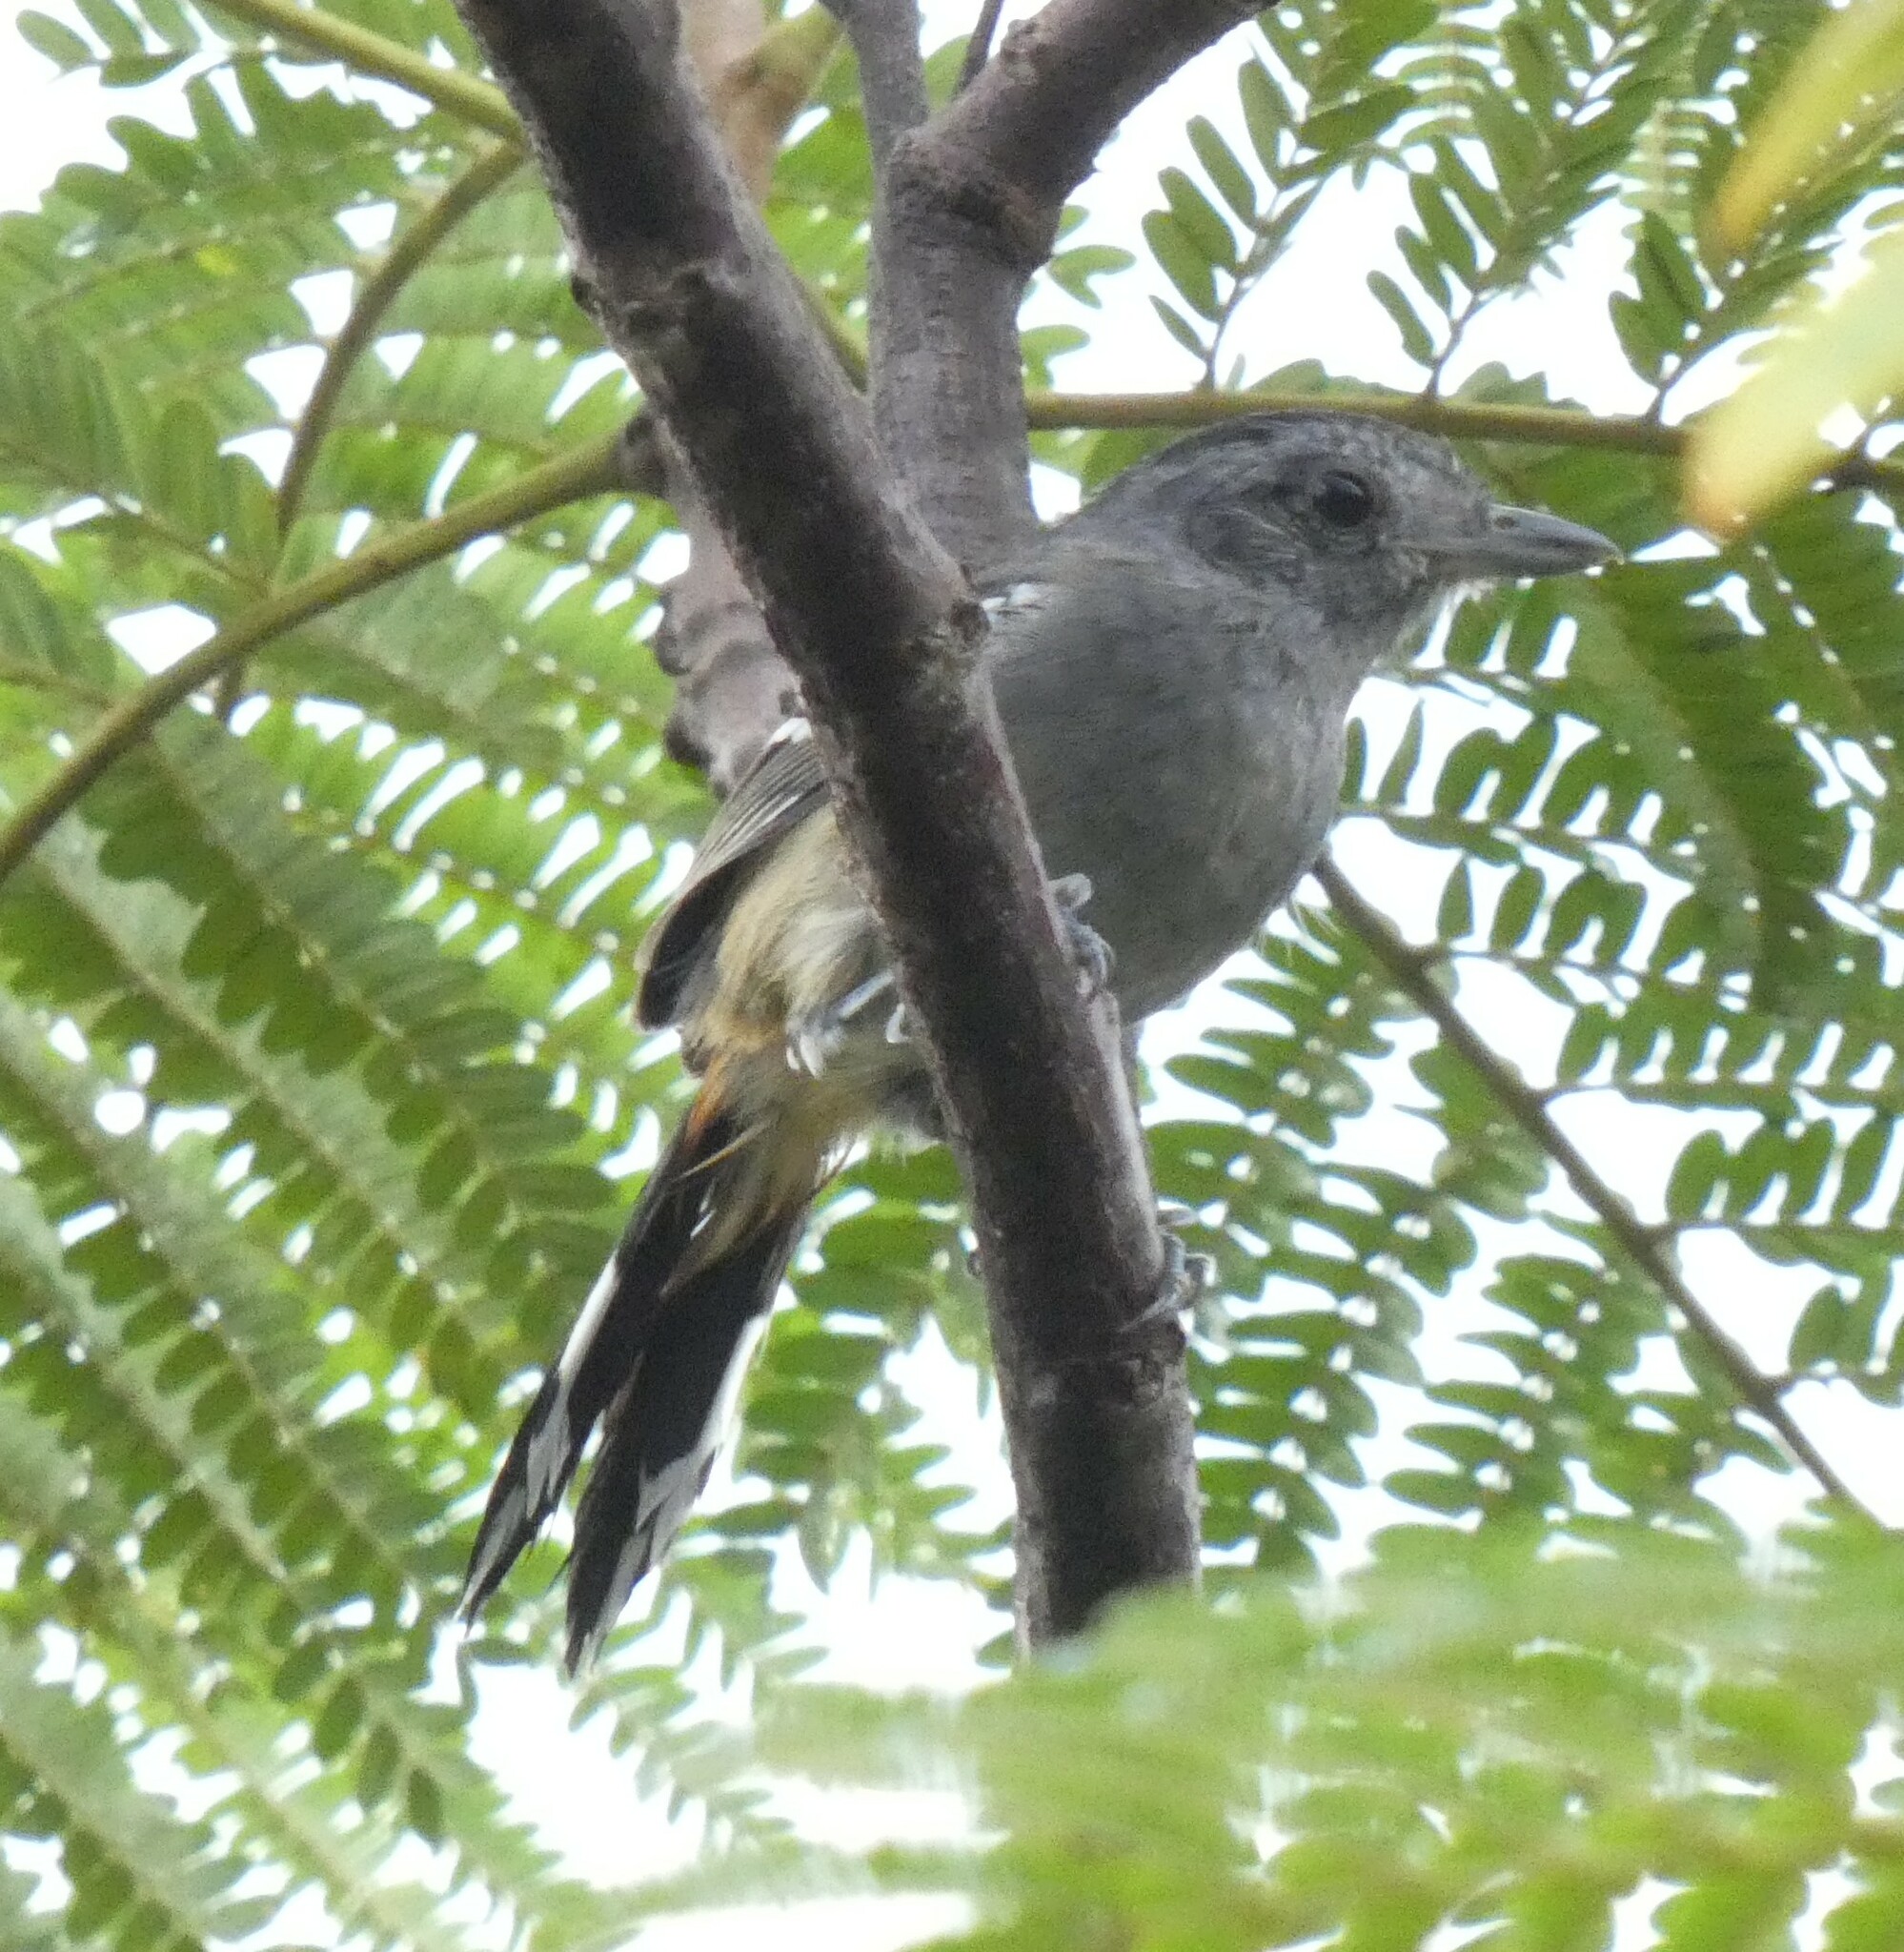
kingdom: Animalia
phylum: Chordata
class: Aves
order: Passeriformes
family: Thamnophilidae
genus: Thamnophilus
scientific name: Thamnophilus caerulescens
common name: Variable antshrike
